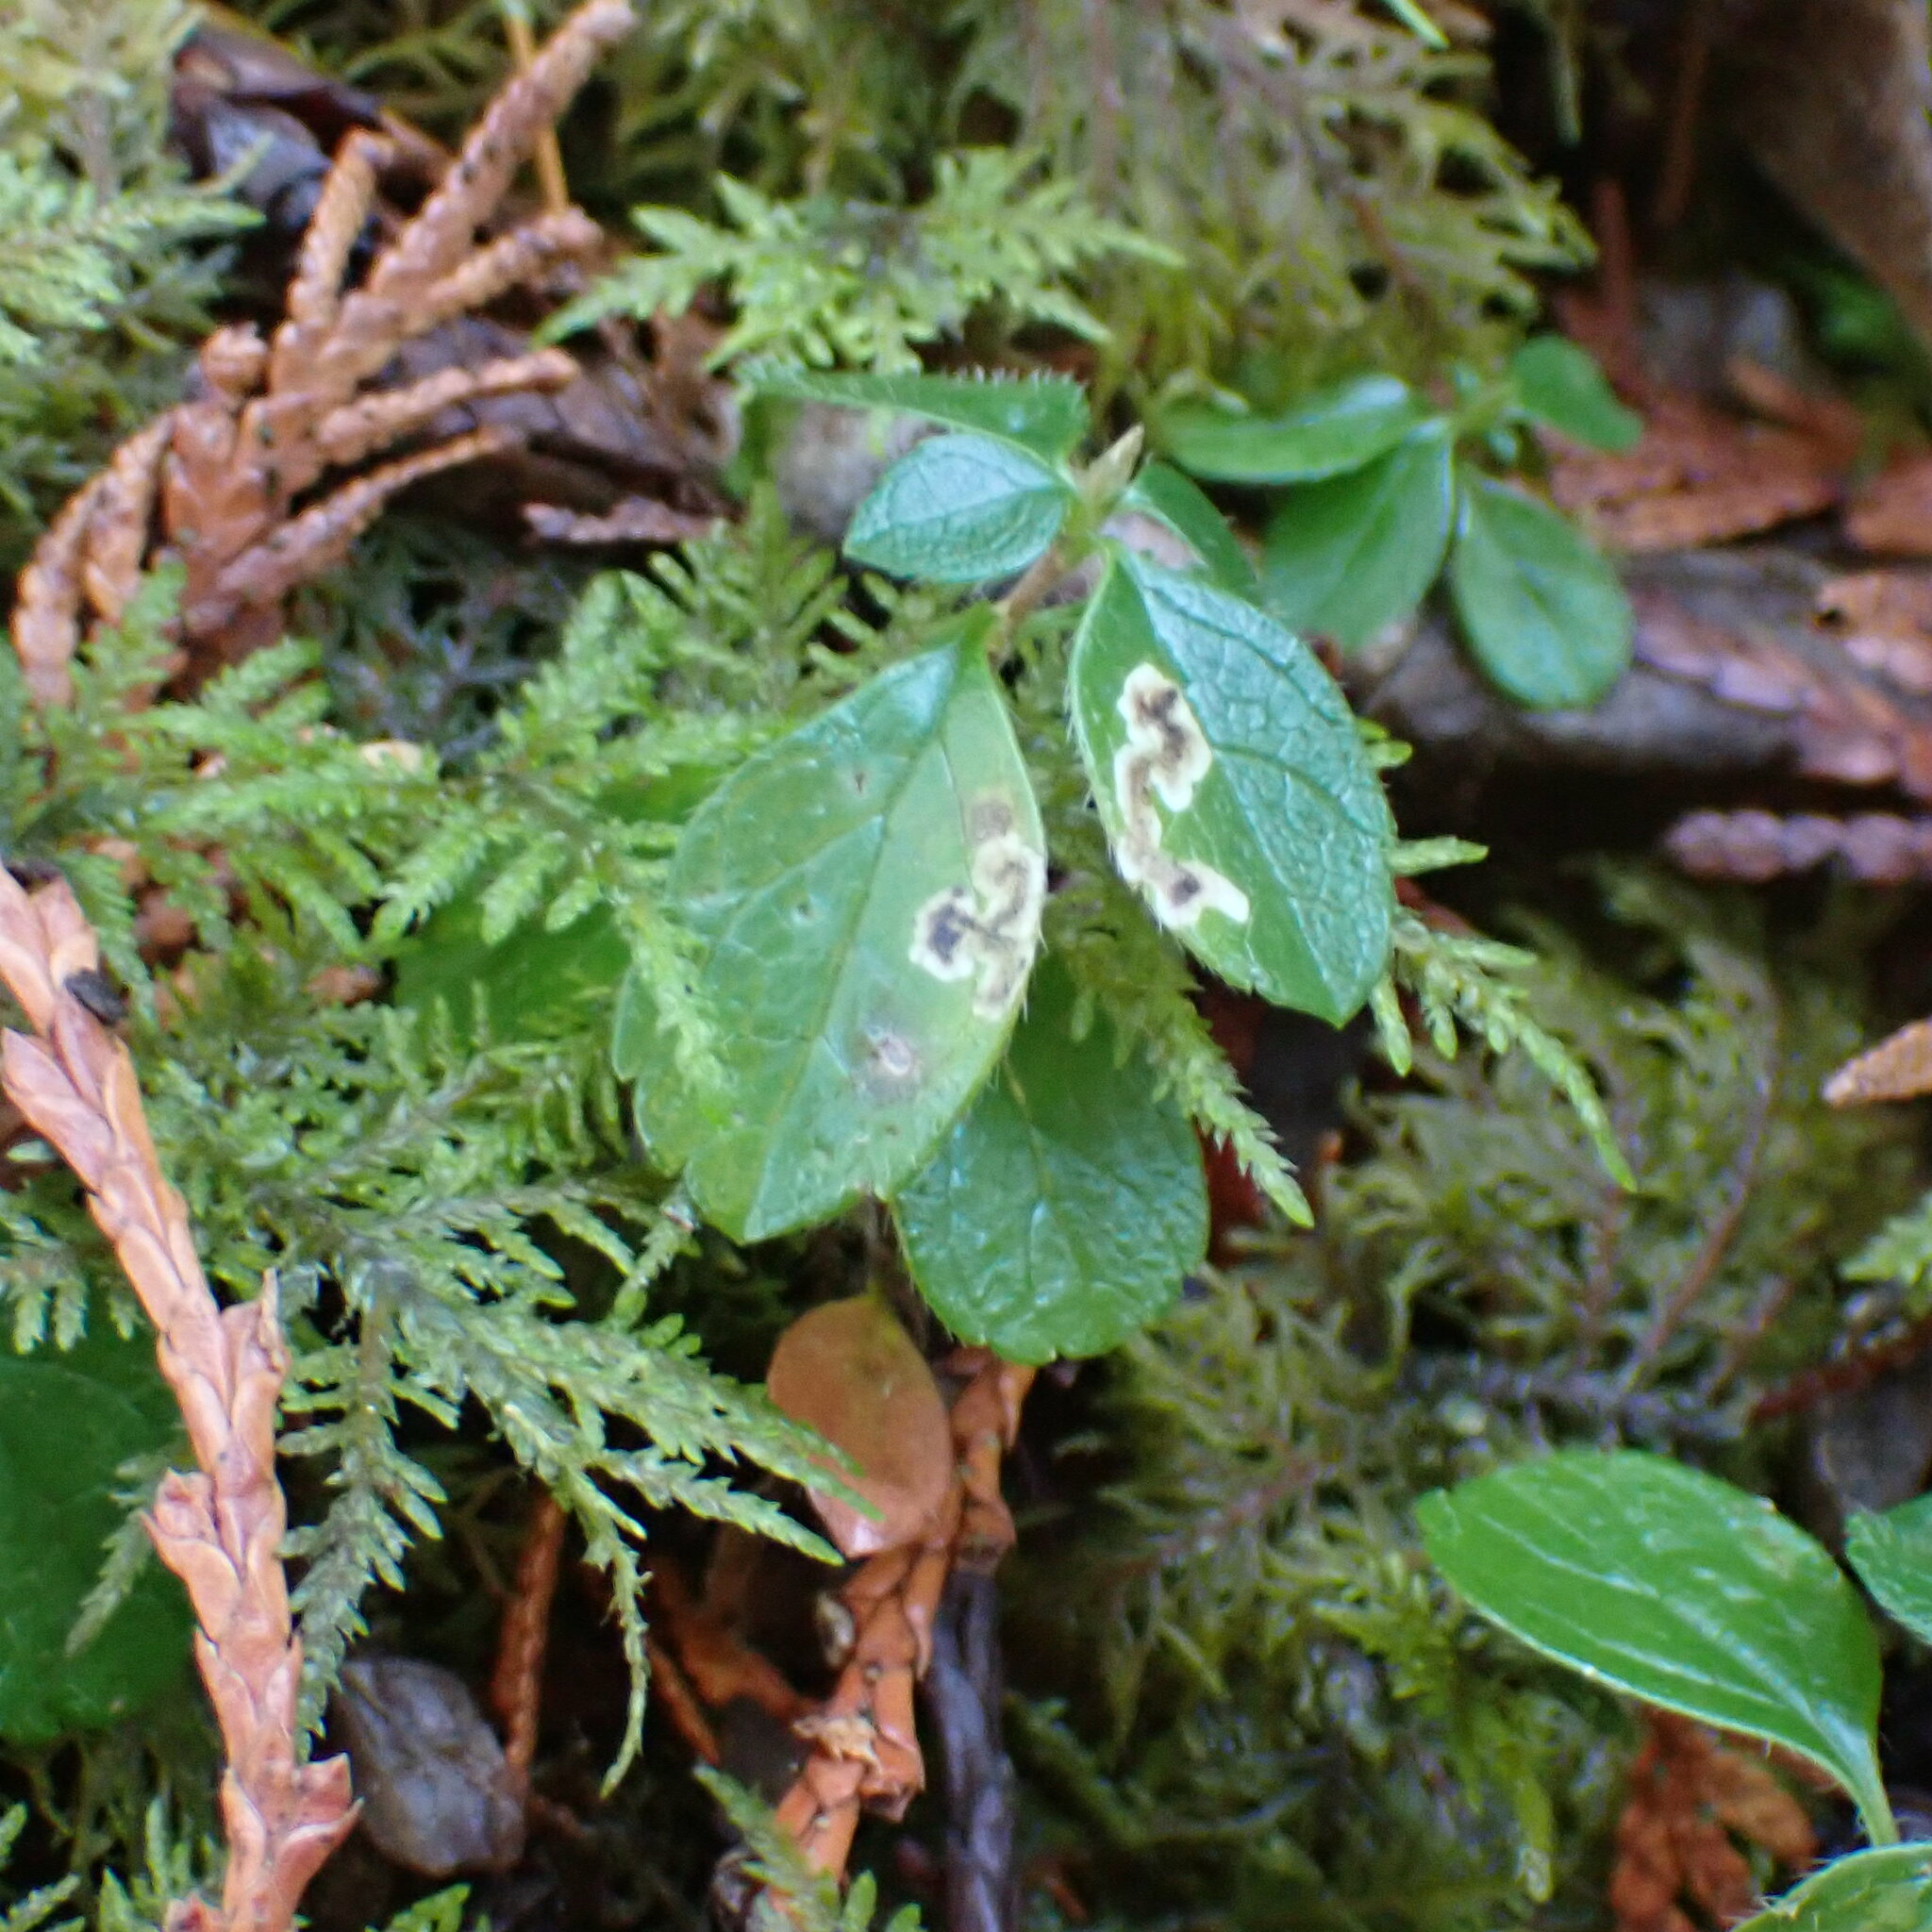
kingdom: Animalia
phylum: Arthropoda
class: Insecta
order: Diptera
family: Agromyzidae
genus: Phytomyza
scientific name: Phytomyza linnaeae
